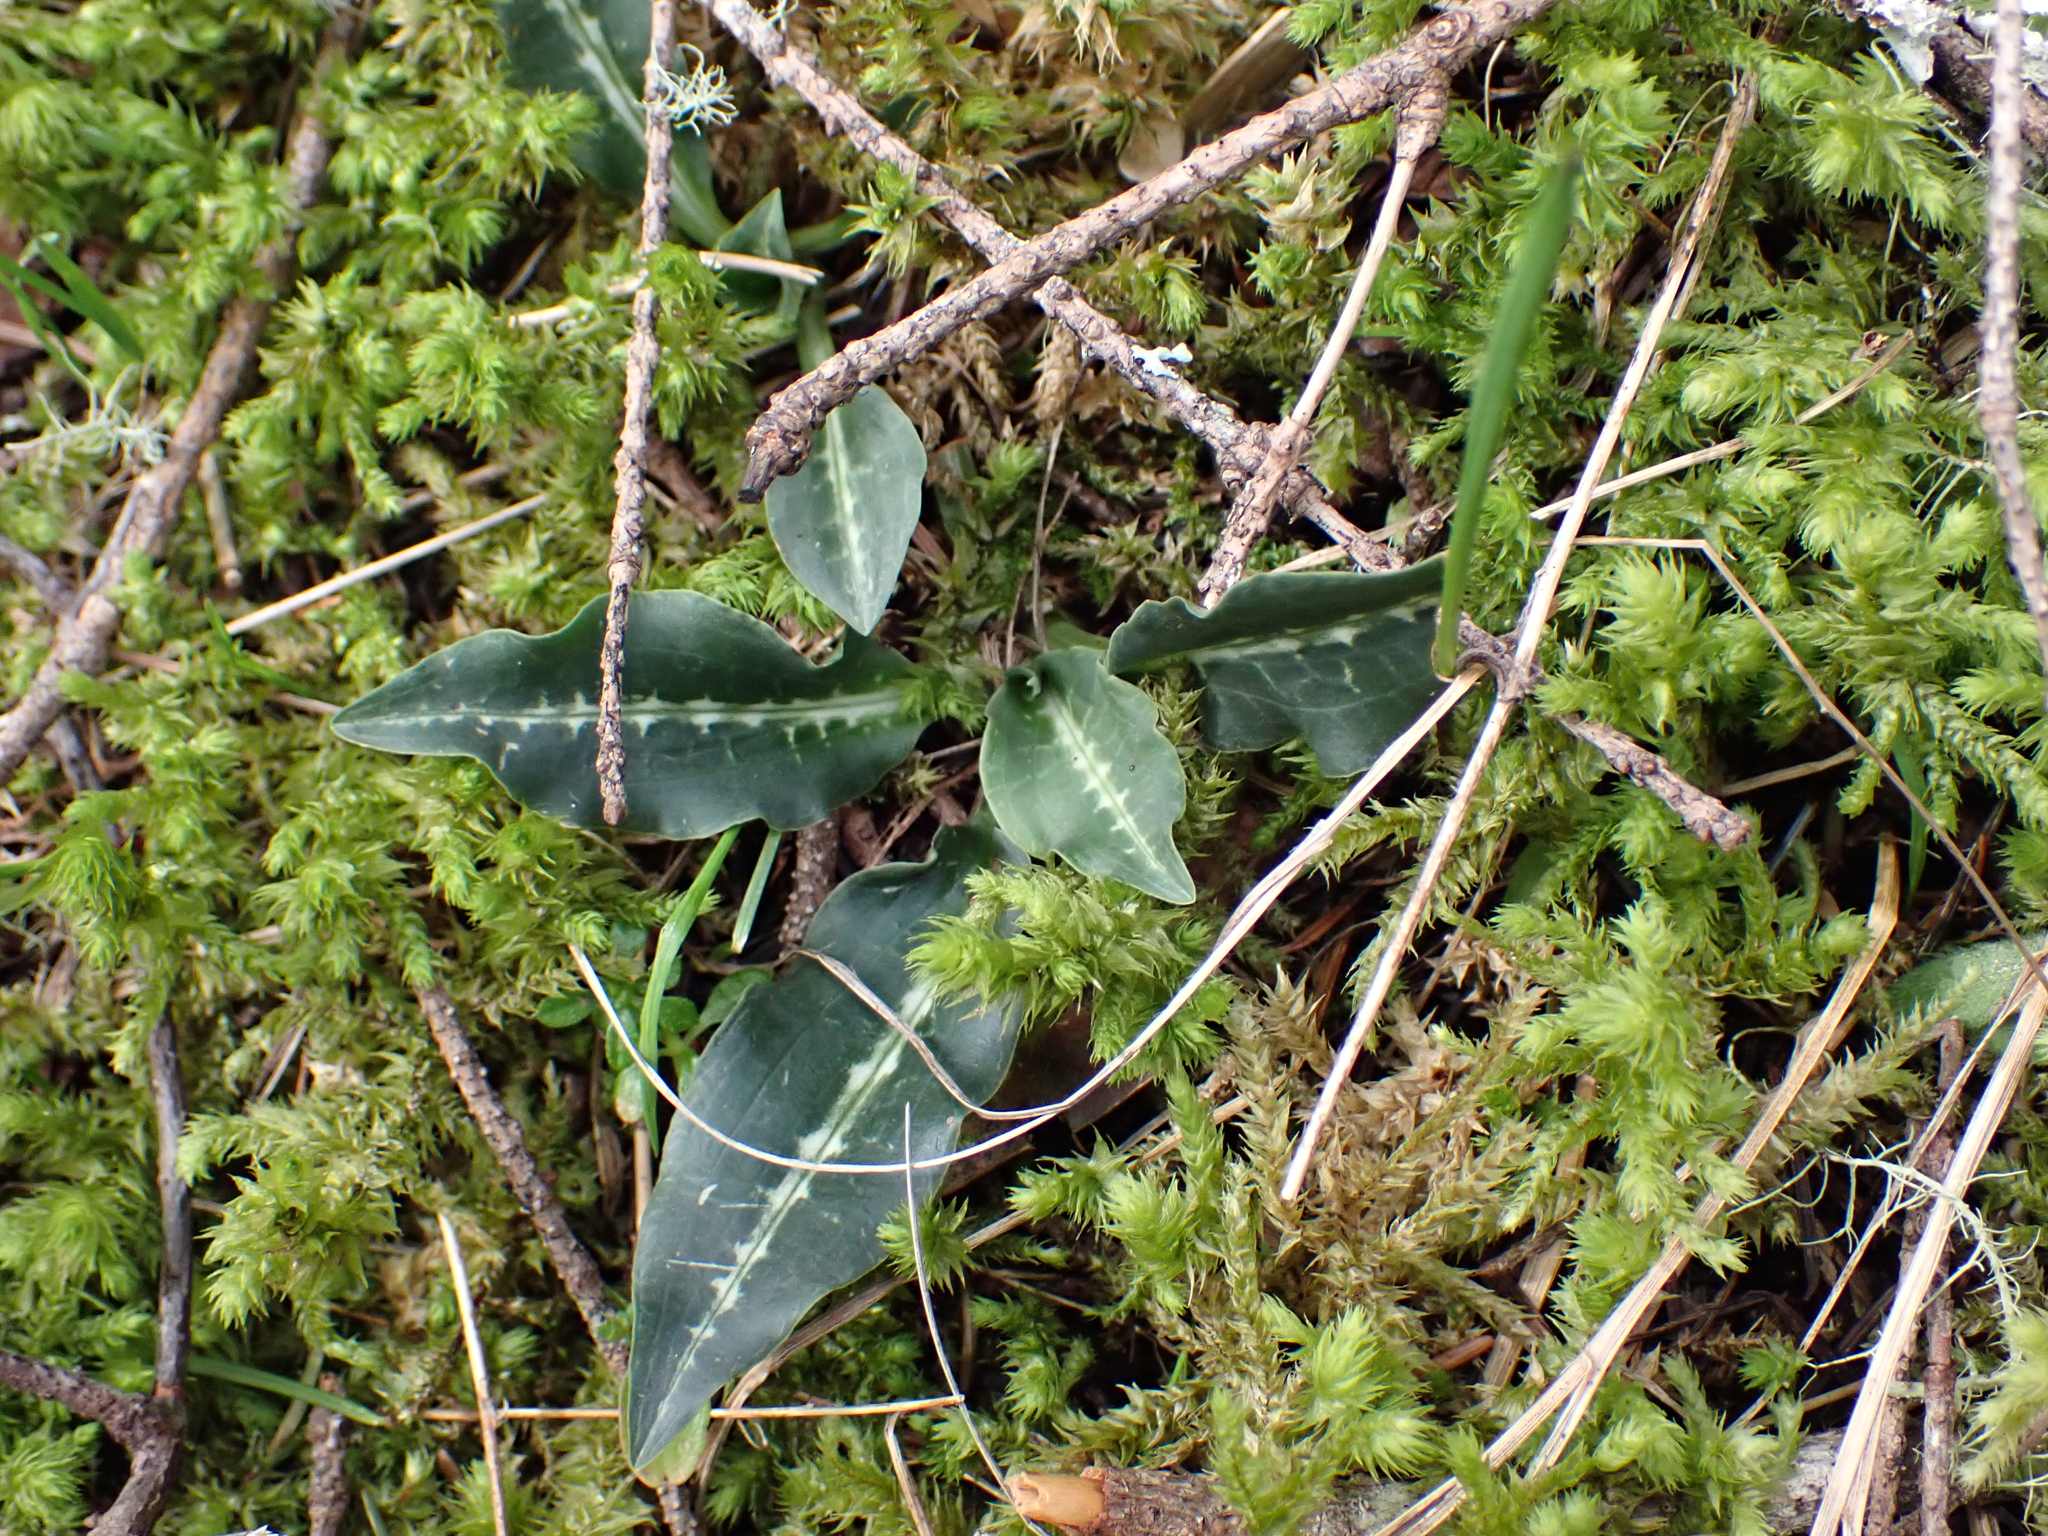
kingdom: Plantae
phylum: Tracheophyta
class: Liliopsida
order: Asparagales
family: Orchidaceae
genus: Goodyera
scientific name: Goodyera oblongifolia
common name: Giant rattlesnake-plantain
